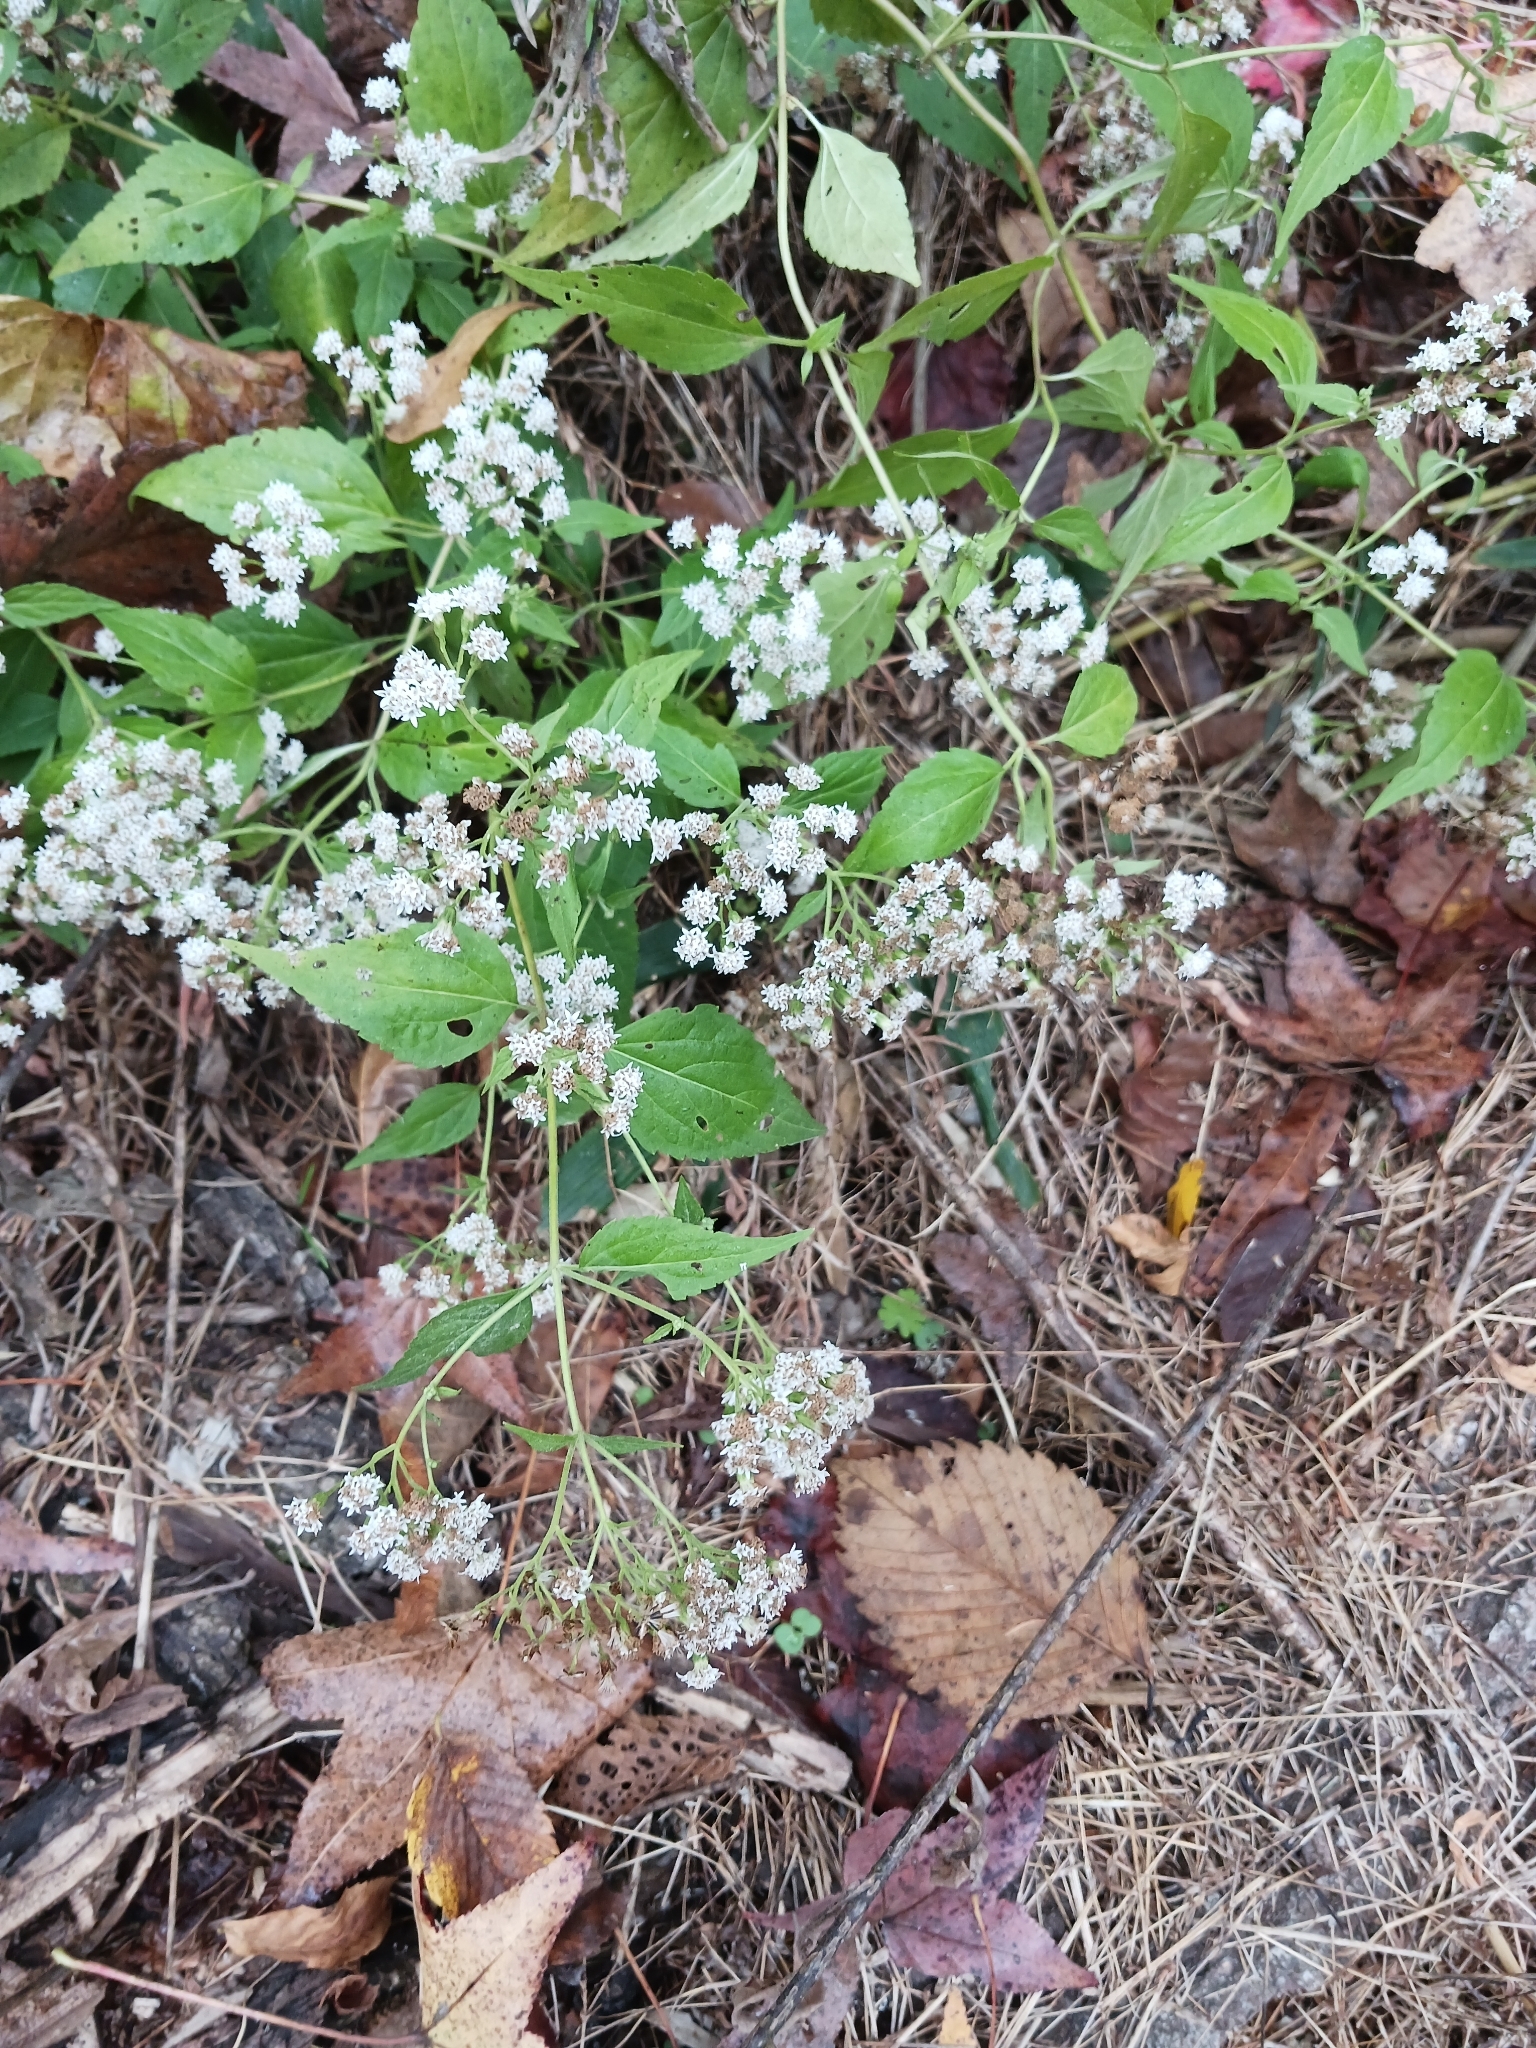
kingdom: Plantae
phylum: Tracheophyta
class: Magnoliopsida
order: Asterales
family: Asteraceae
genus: Ageratina
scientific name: Ageratina altissima
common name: White snakeroot
